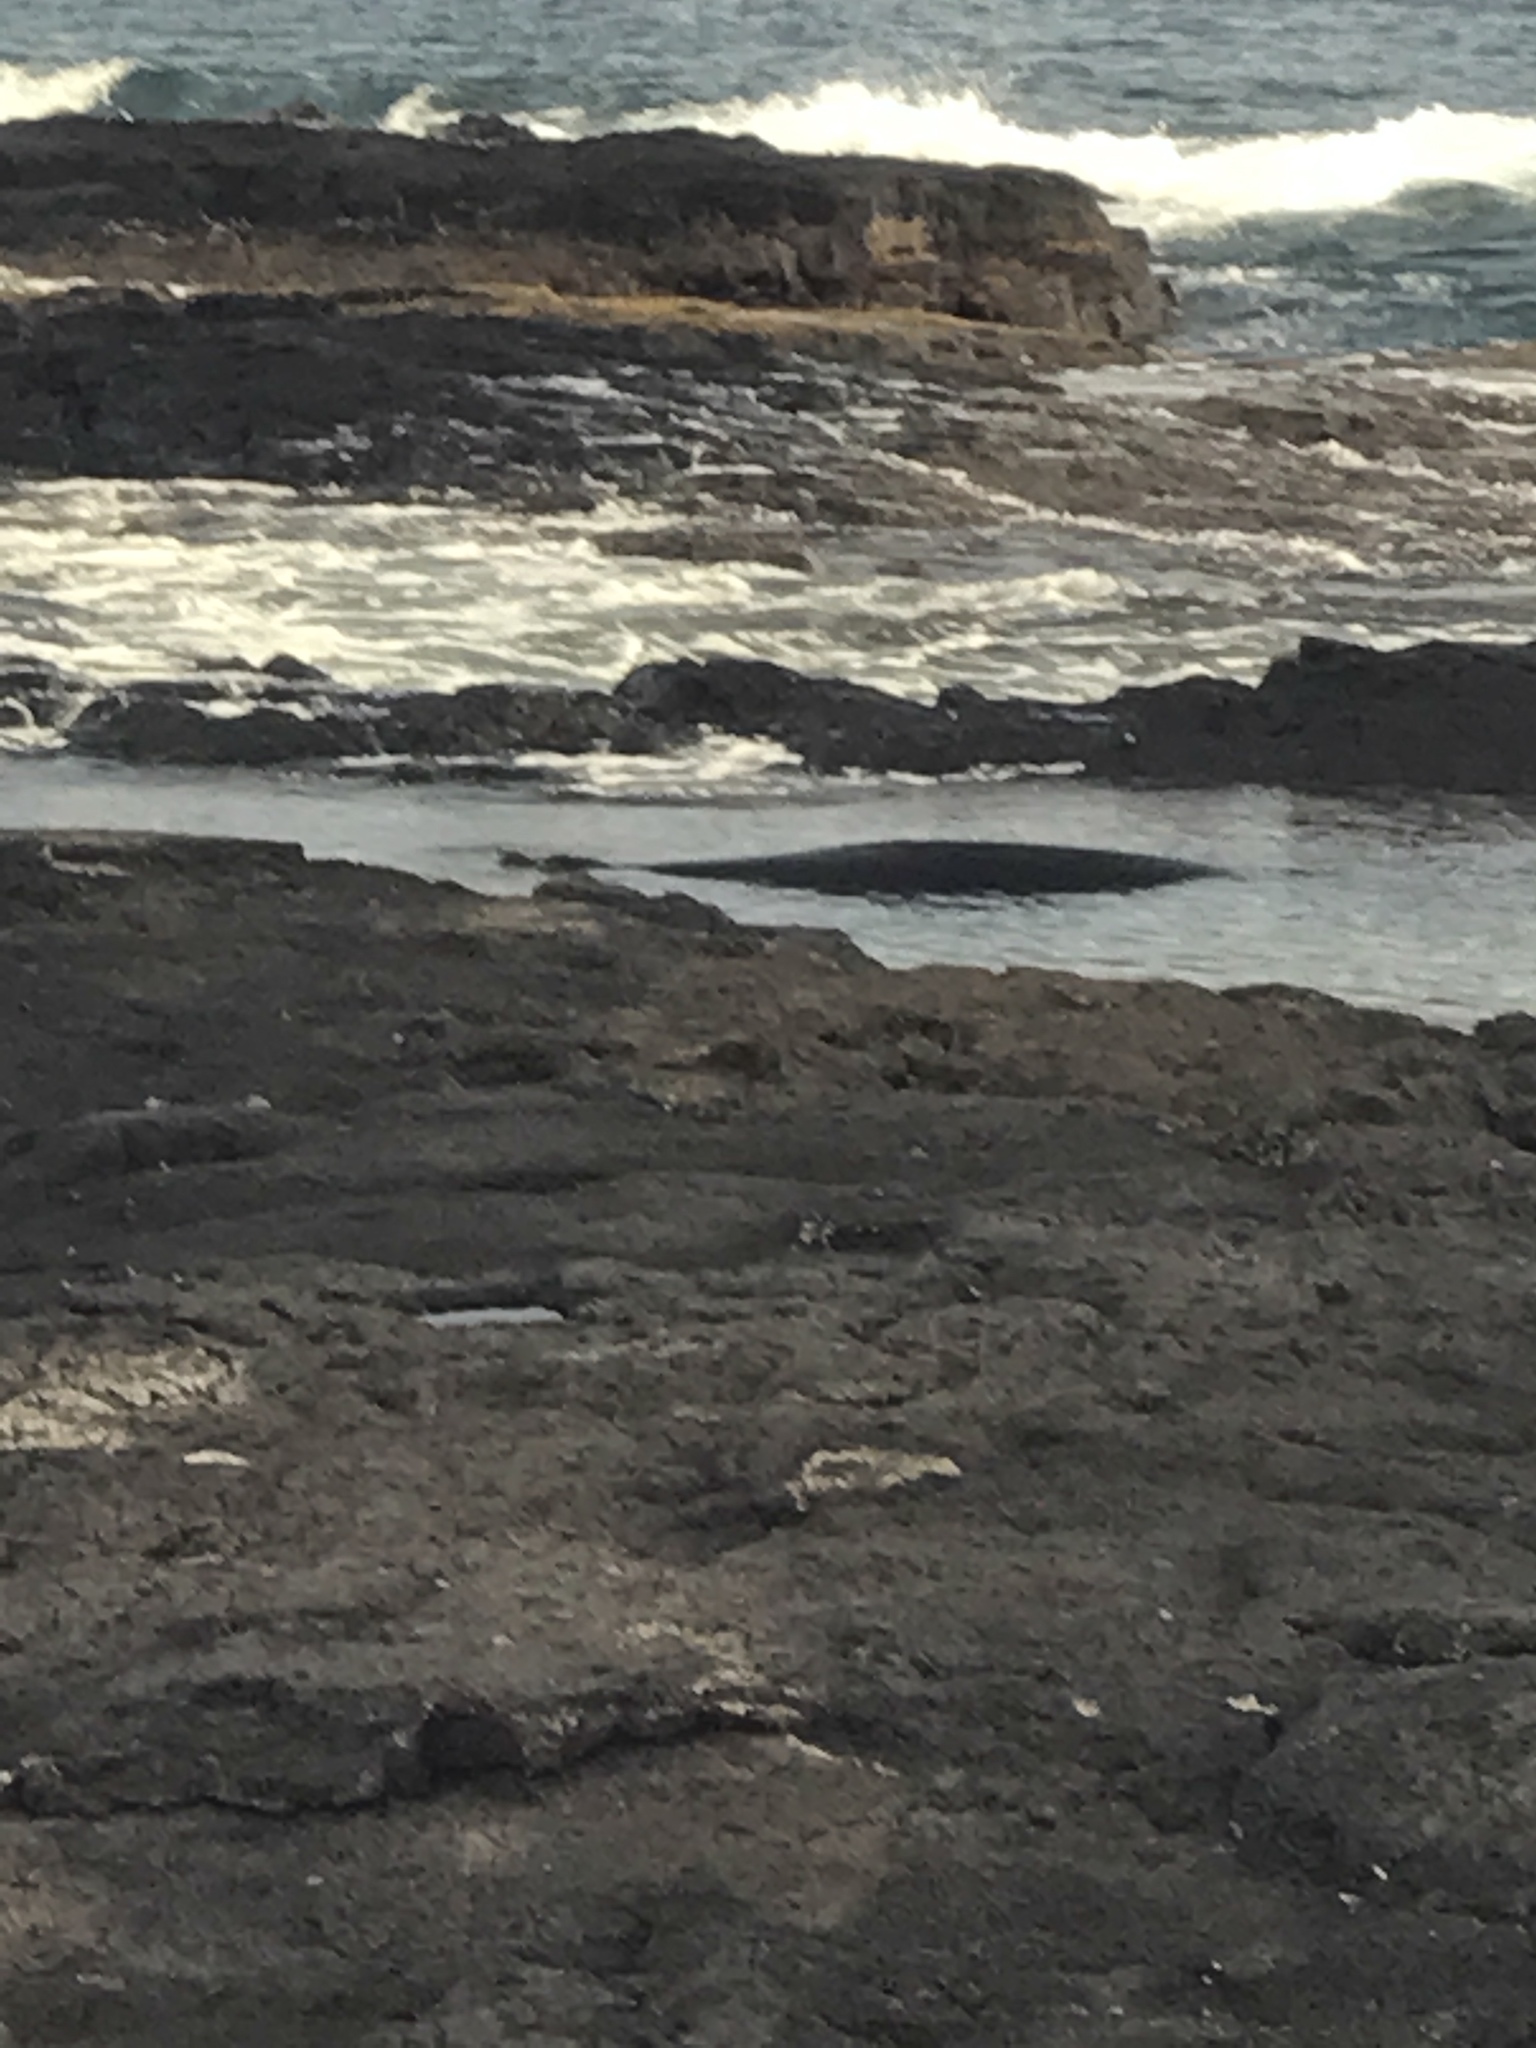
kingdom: Animalia
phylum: Chordata
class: Mammalia
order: Carnivora
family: Phocidae
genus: Neomonachus
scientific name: Neomonachus schauinslandi
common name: Hawaiian monk seal
